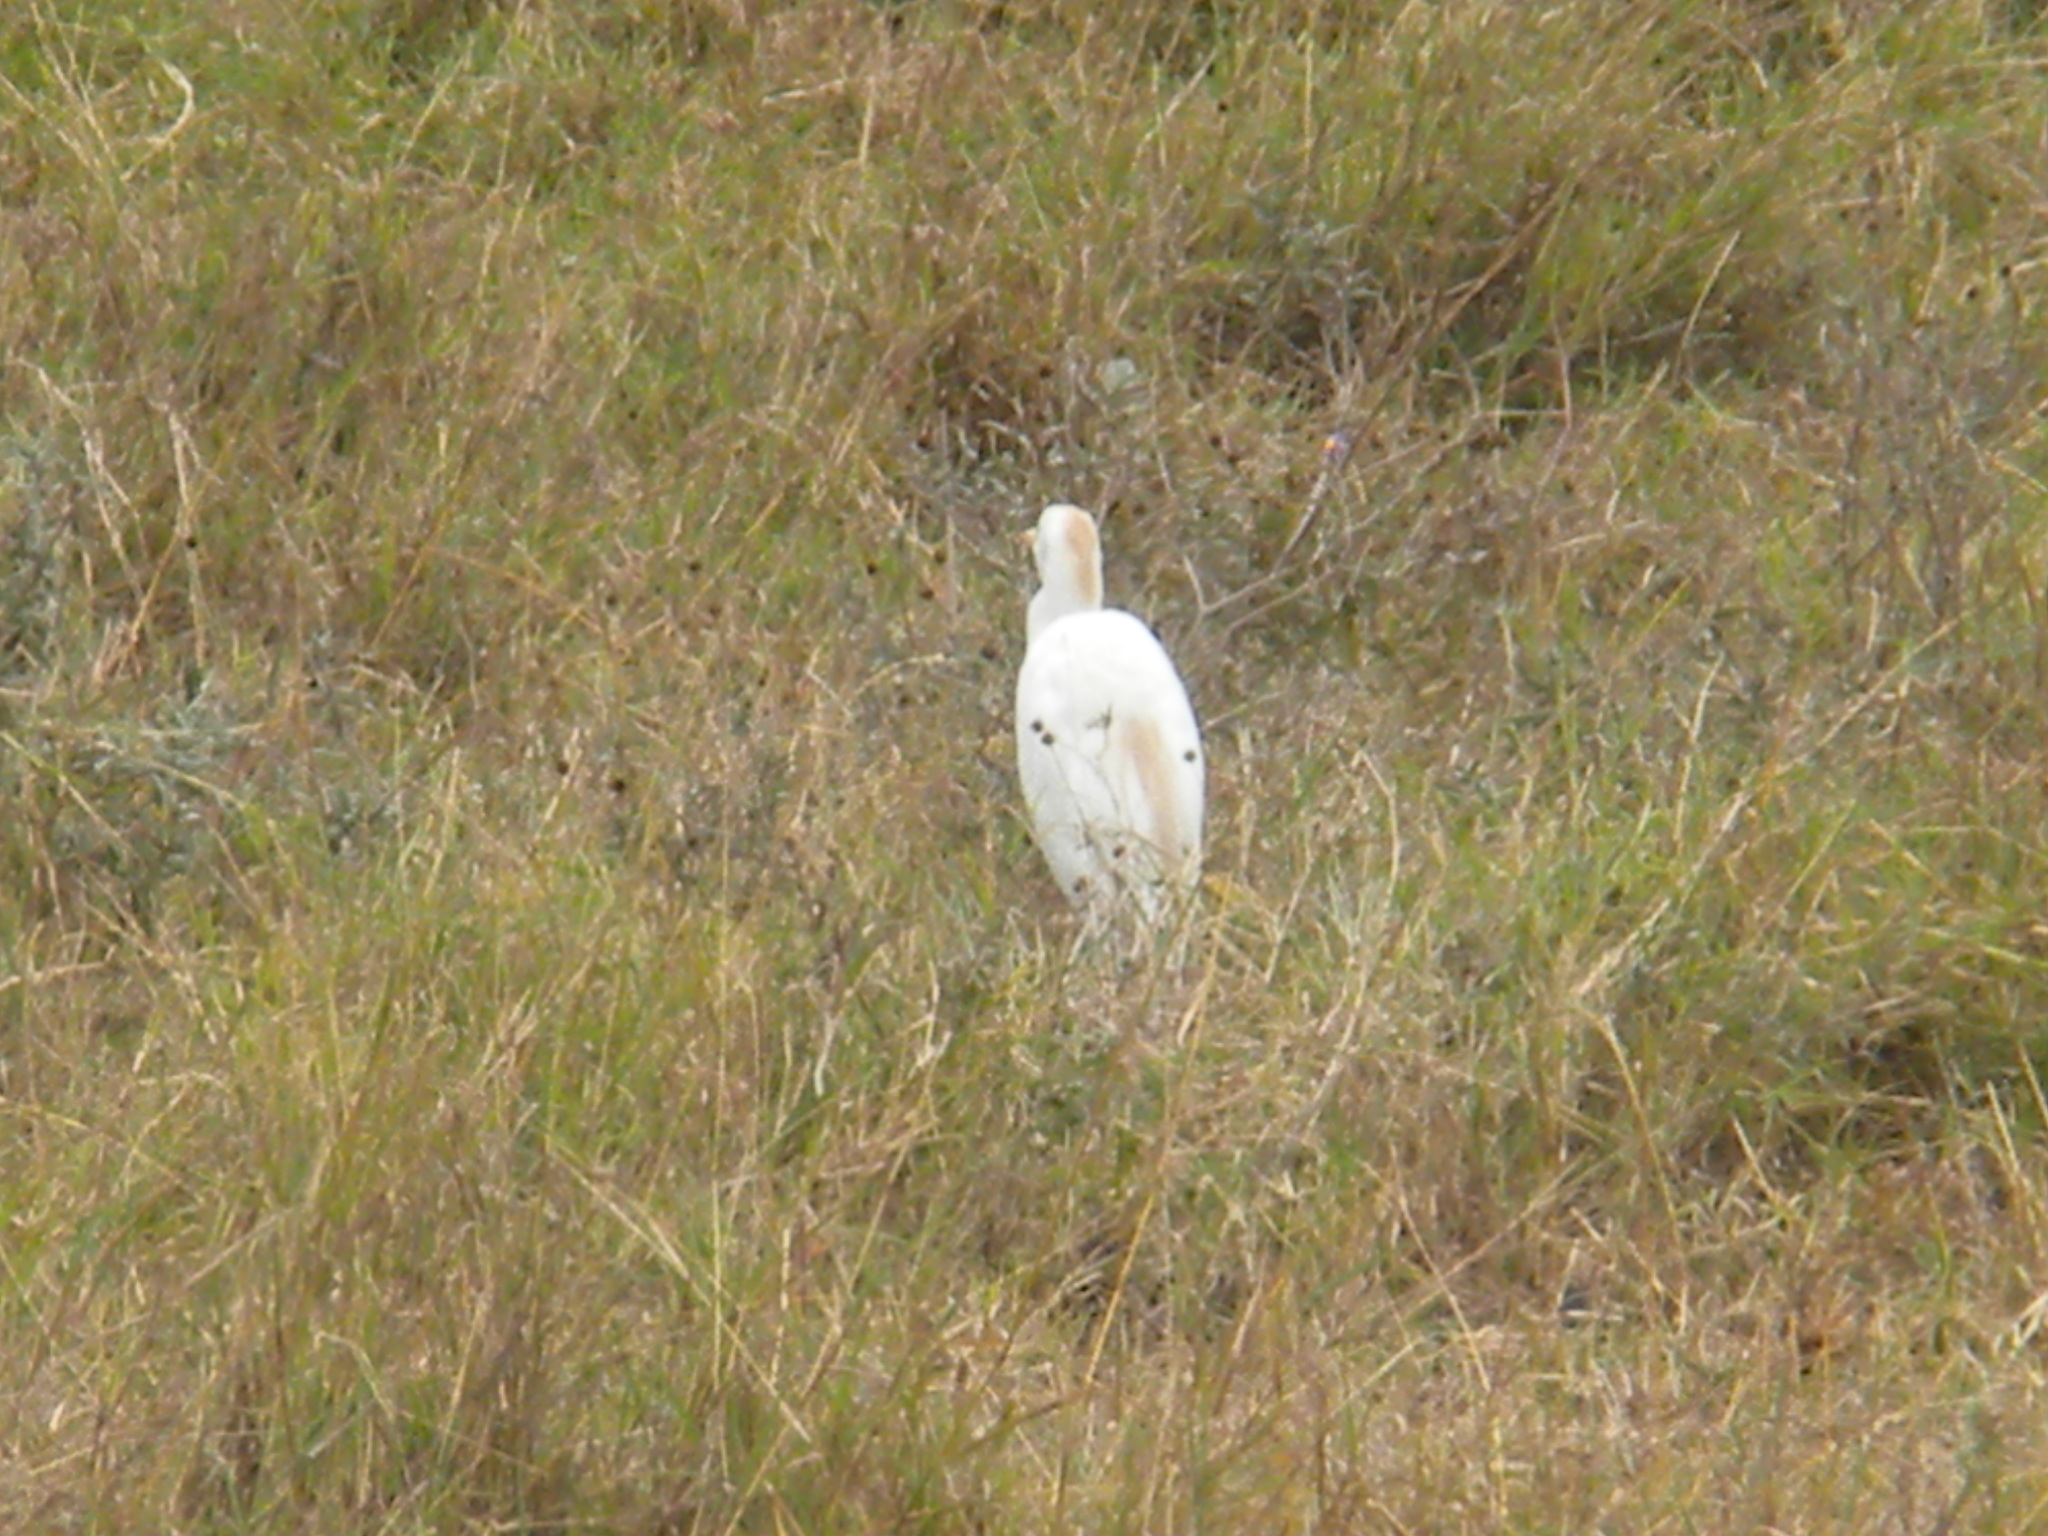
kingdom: Animalia
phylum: Chordata
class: Aves
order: Pelecaniformes
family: Ardeidae
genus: Bubulcus
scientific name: Bubulcus ibis
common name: Cattle egret
